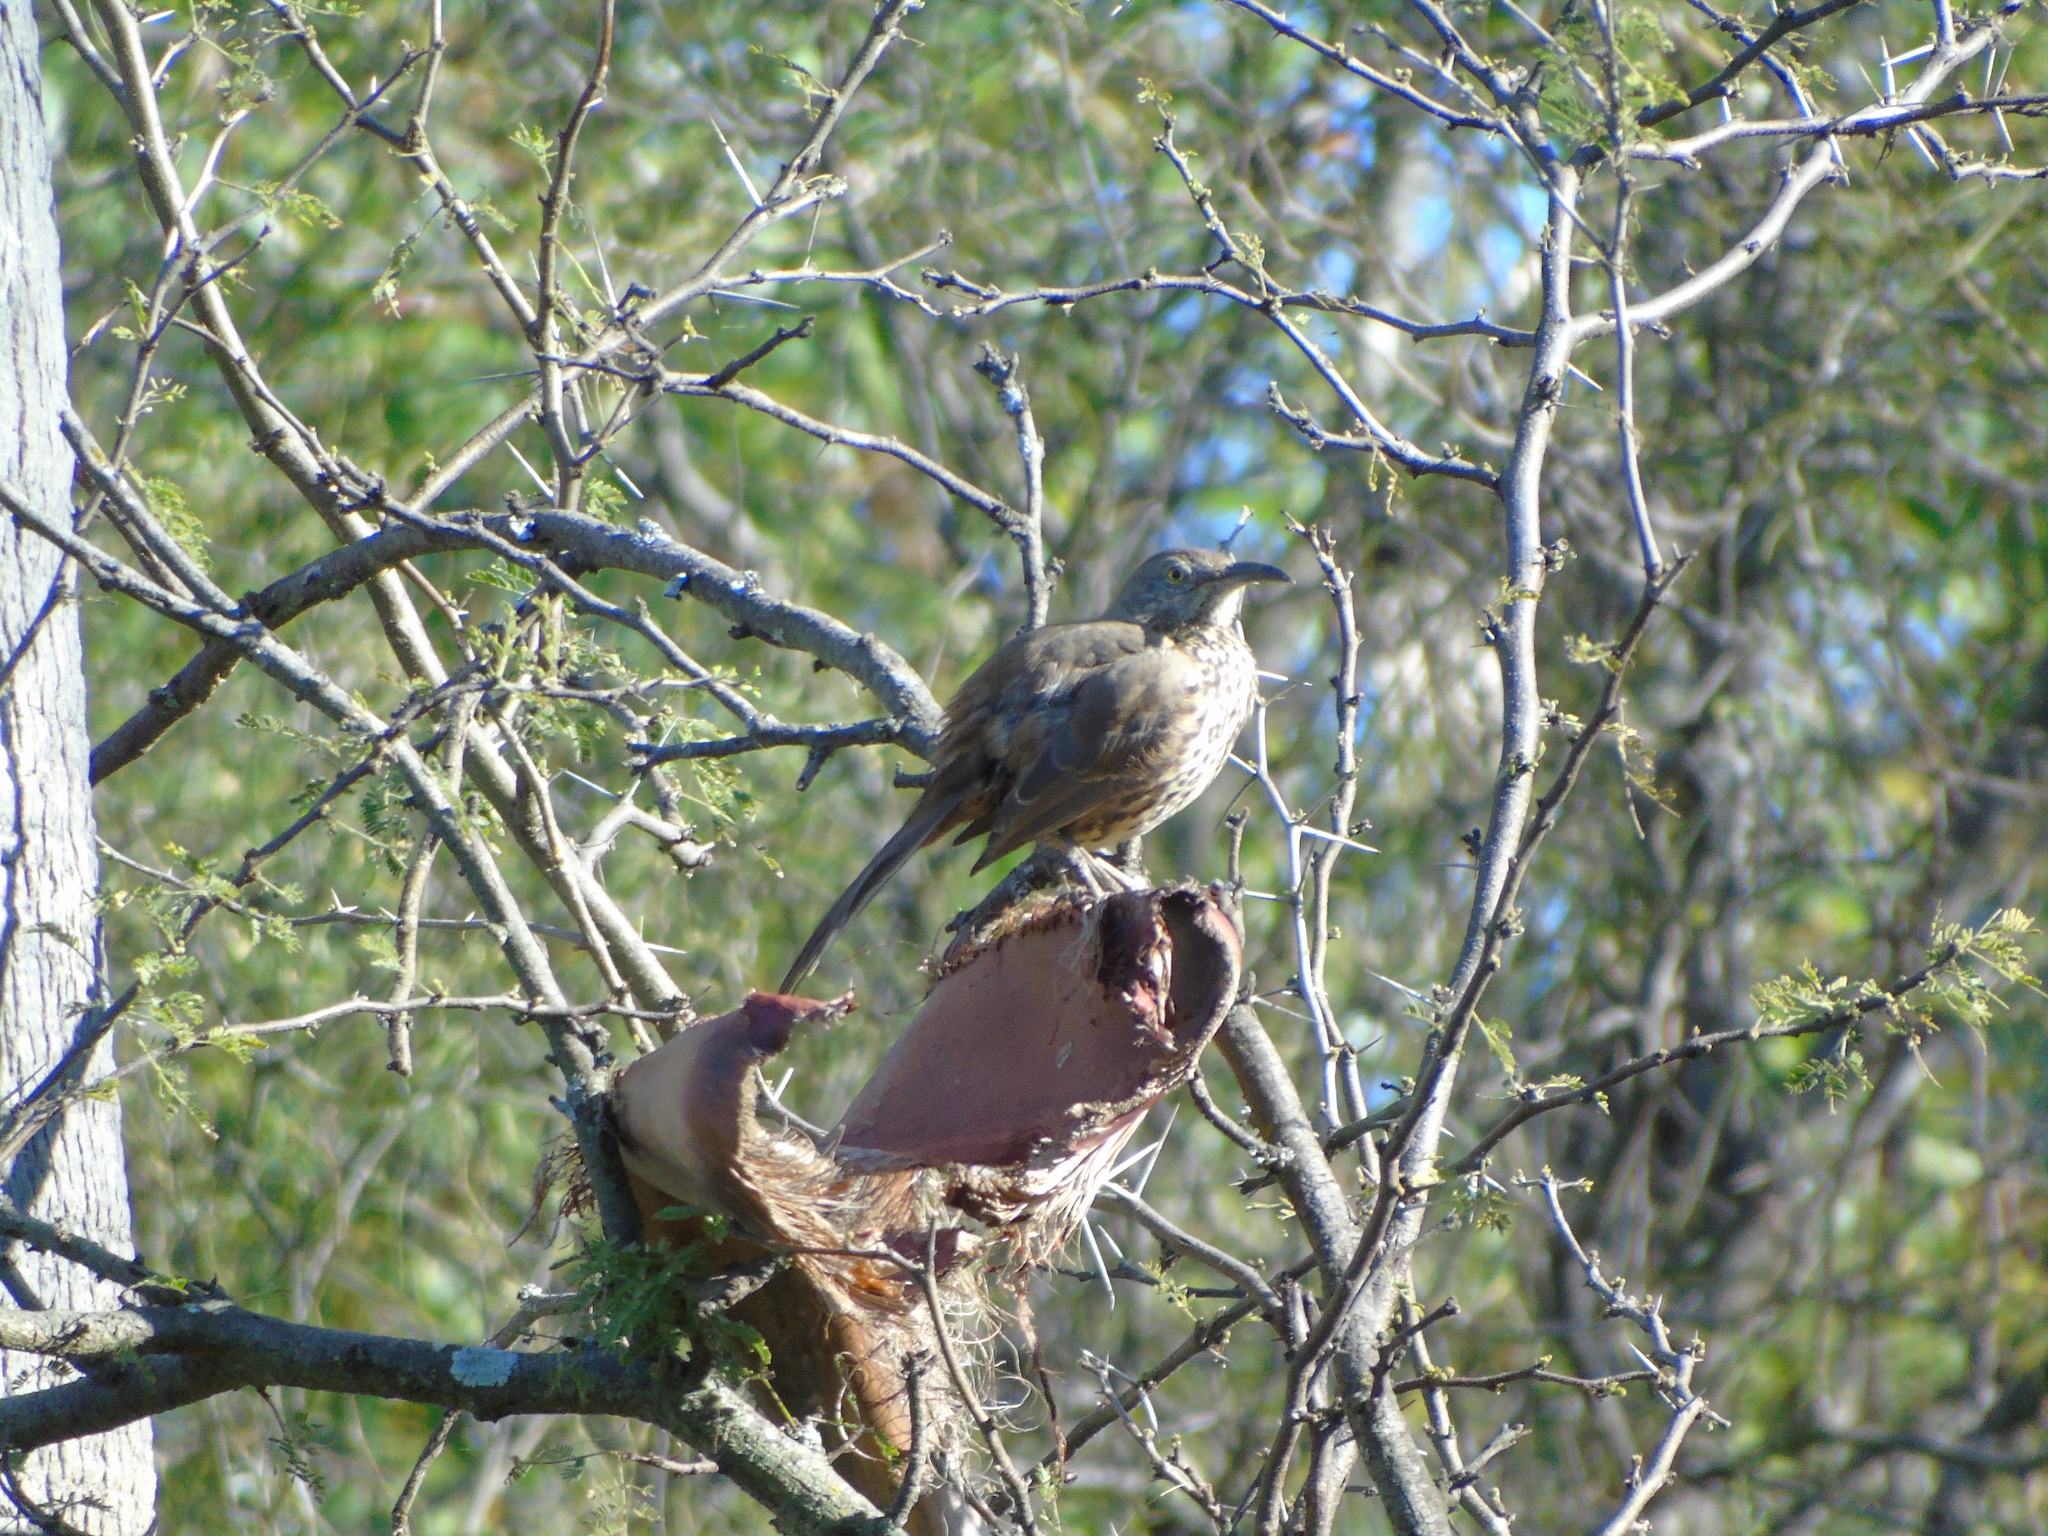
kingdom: Animalia
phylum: Chordata
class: Aves
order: Passeriformes
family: Mimidae
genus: Toxostoma
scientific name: Toxostoma cinereum
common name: Gray thrasher
